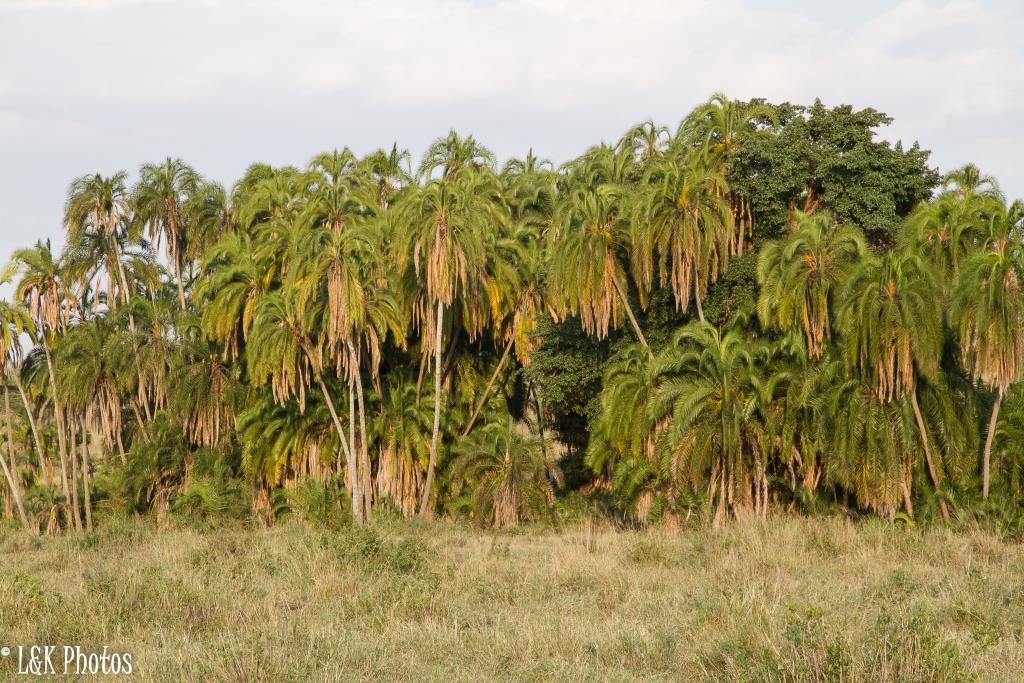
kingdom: Plantae
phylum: Tracheophyta
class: Liliopsida
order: Arecales
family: Arecaceae
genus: Phoenix
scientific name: Phoenix reclinata
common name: Senegal date palm
